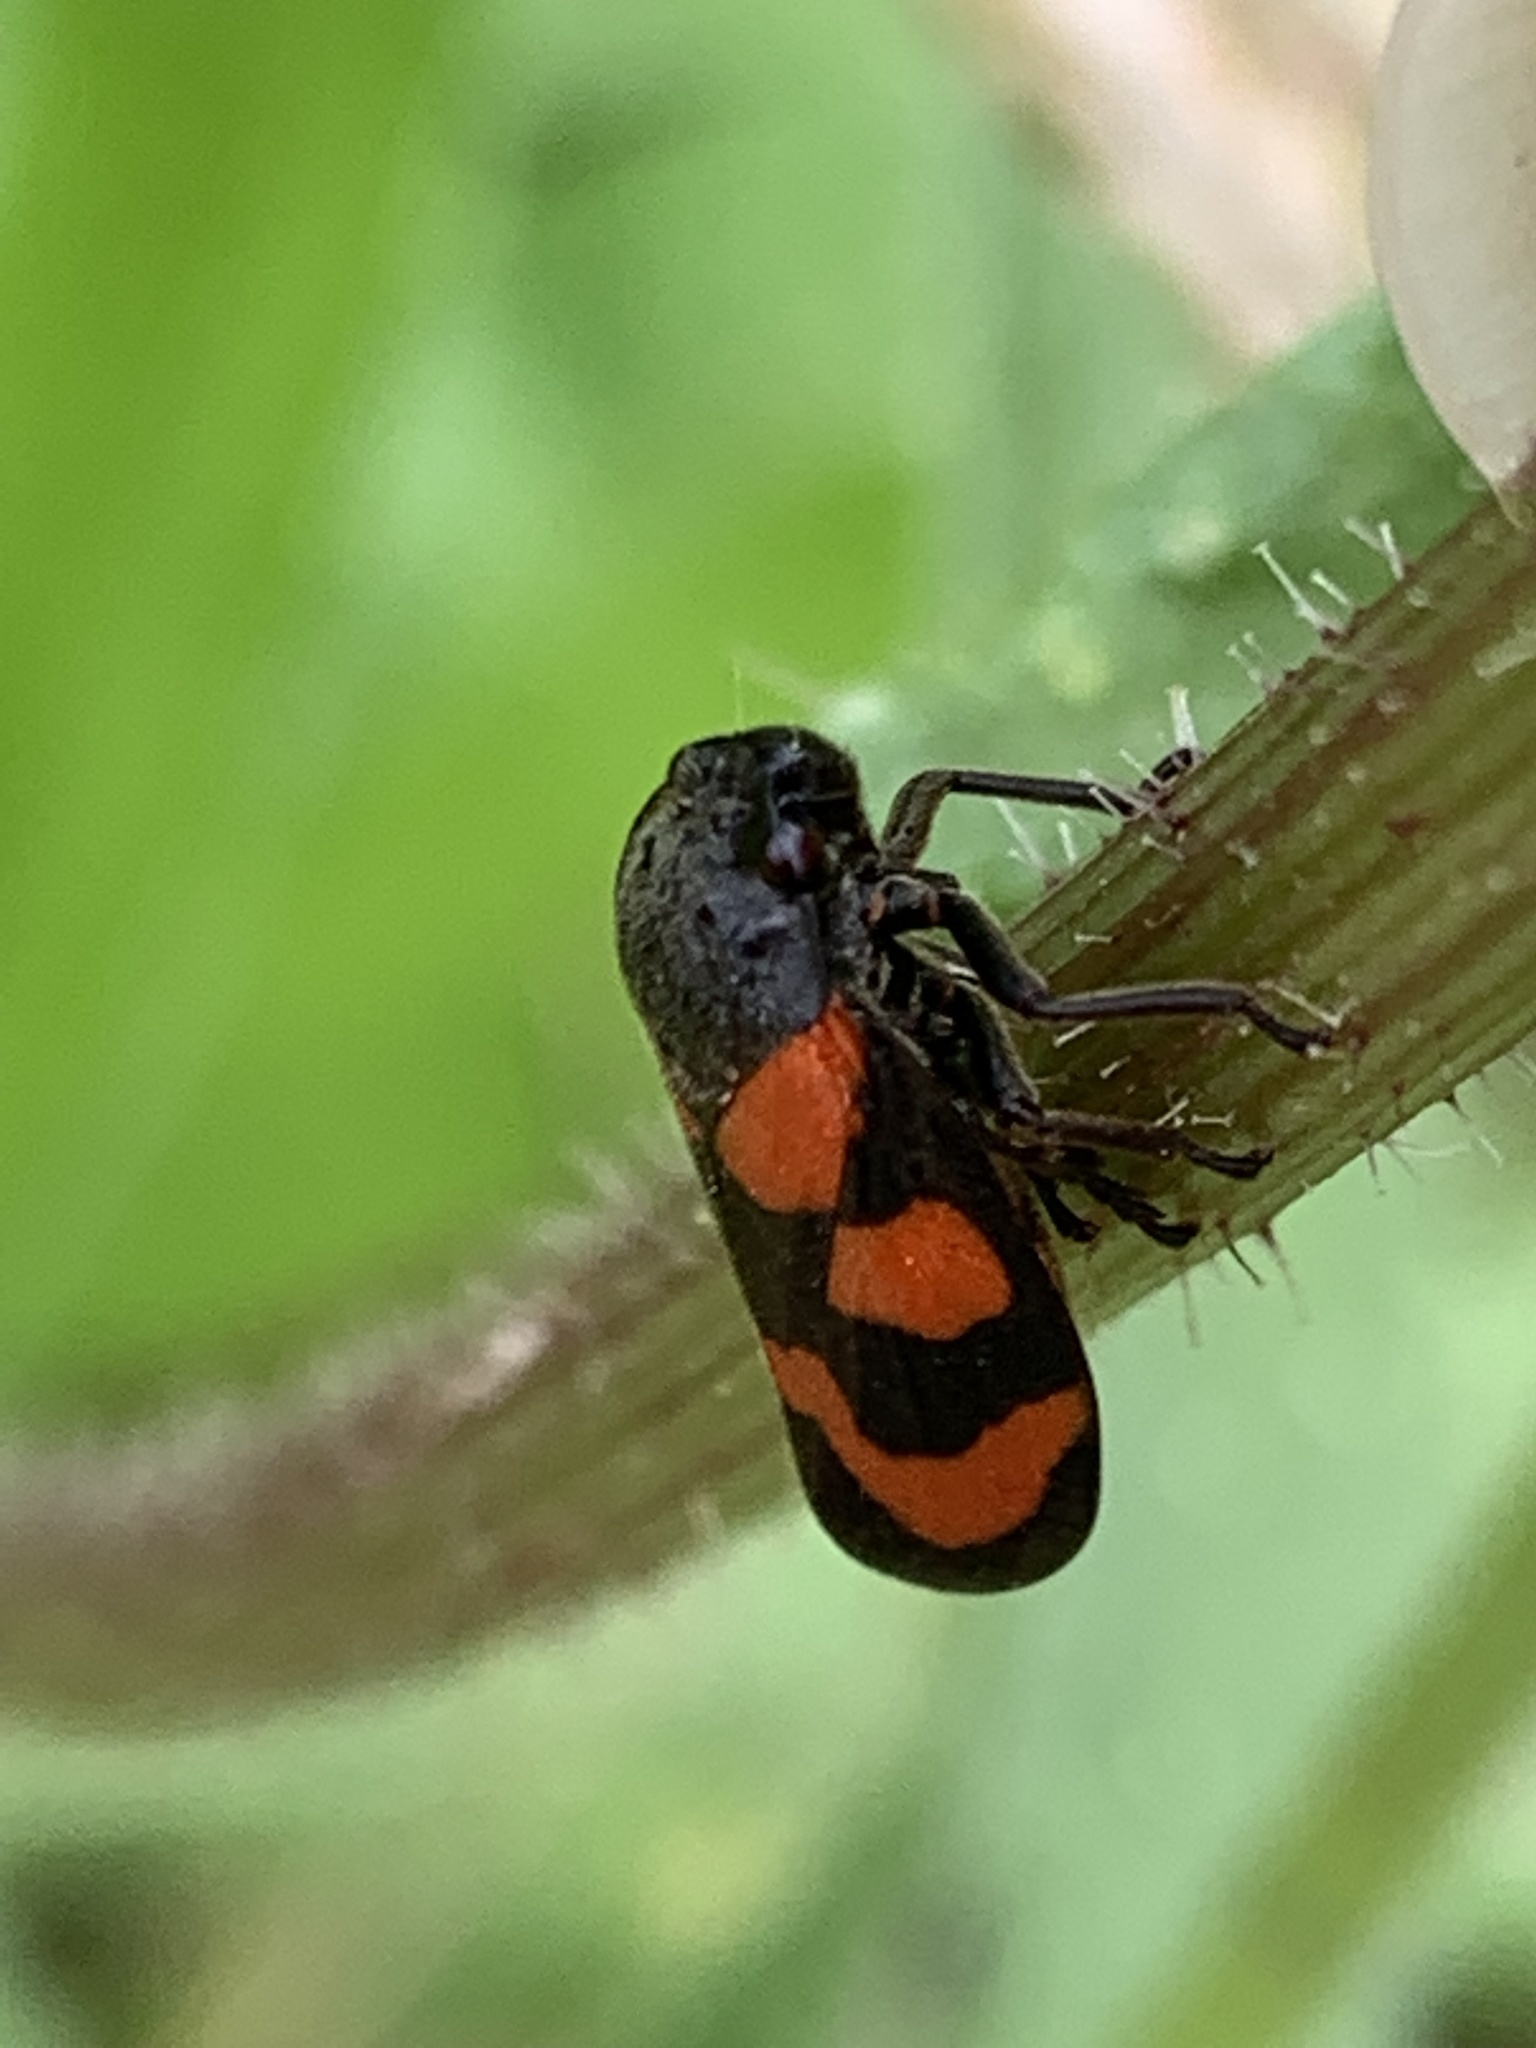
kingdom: Animalia
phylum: Arthropoda
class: Insecta
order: Hemiptera
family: Cercopidae
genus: Cercopis
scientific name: Cercopis vulnerata
